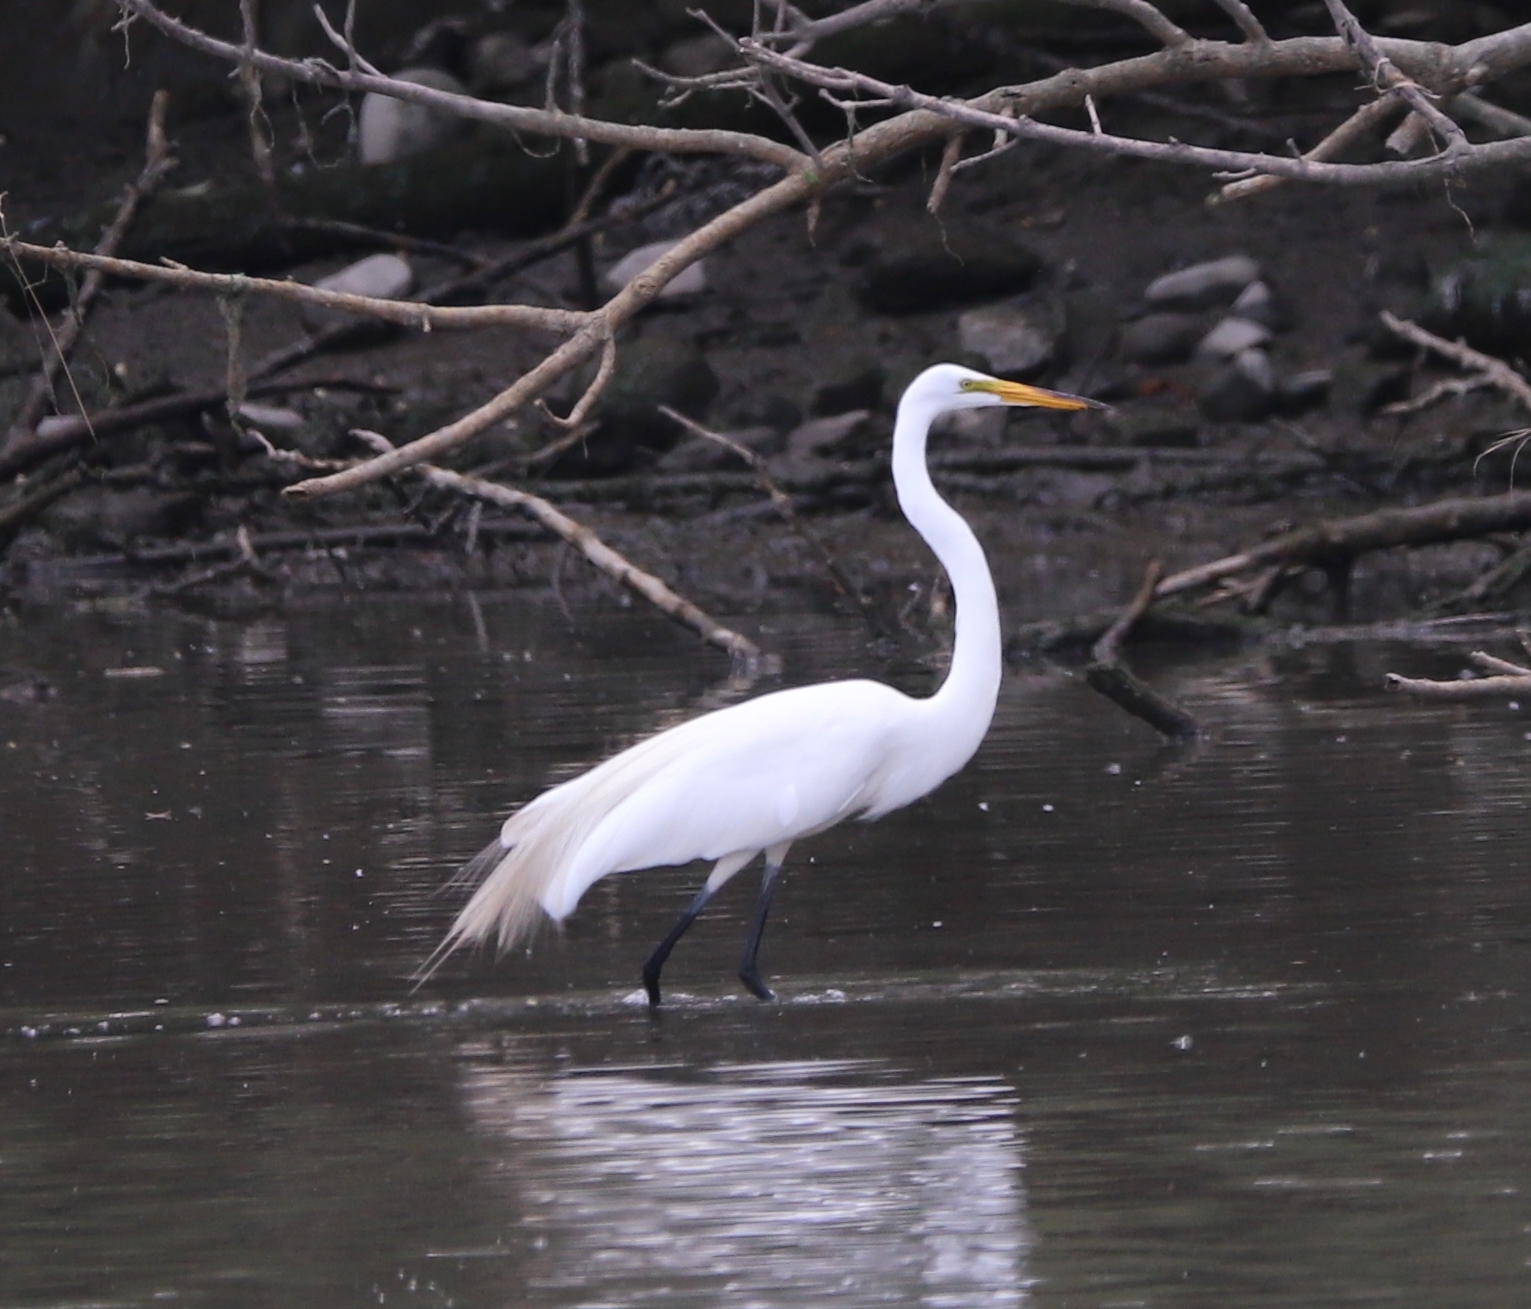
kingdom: Animalia
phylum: Chordata
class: Aves
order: Pelecaniformes
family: Ardeidae
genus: Ardea
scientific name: Ardea alba
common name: Great egret
